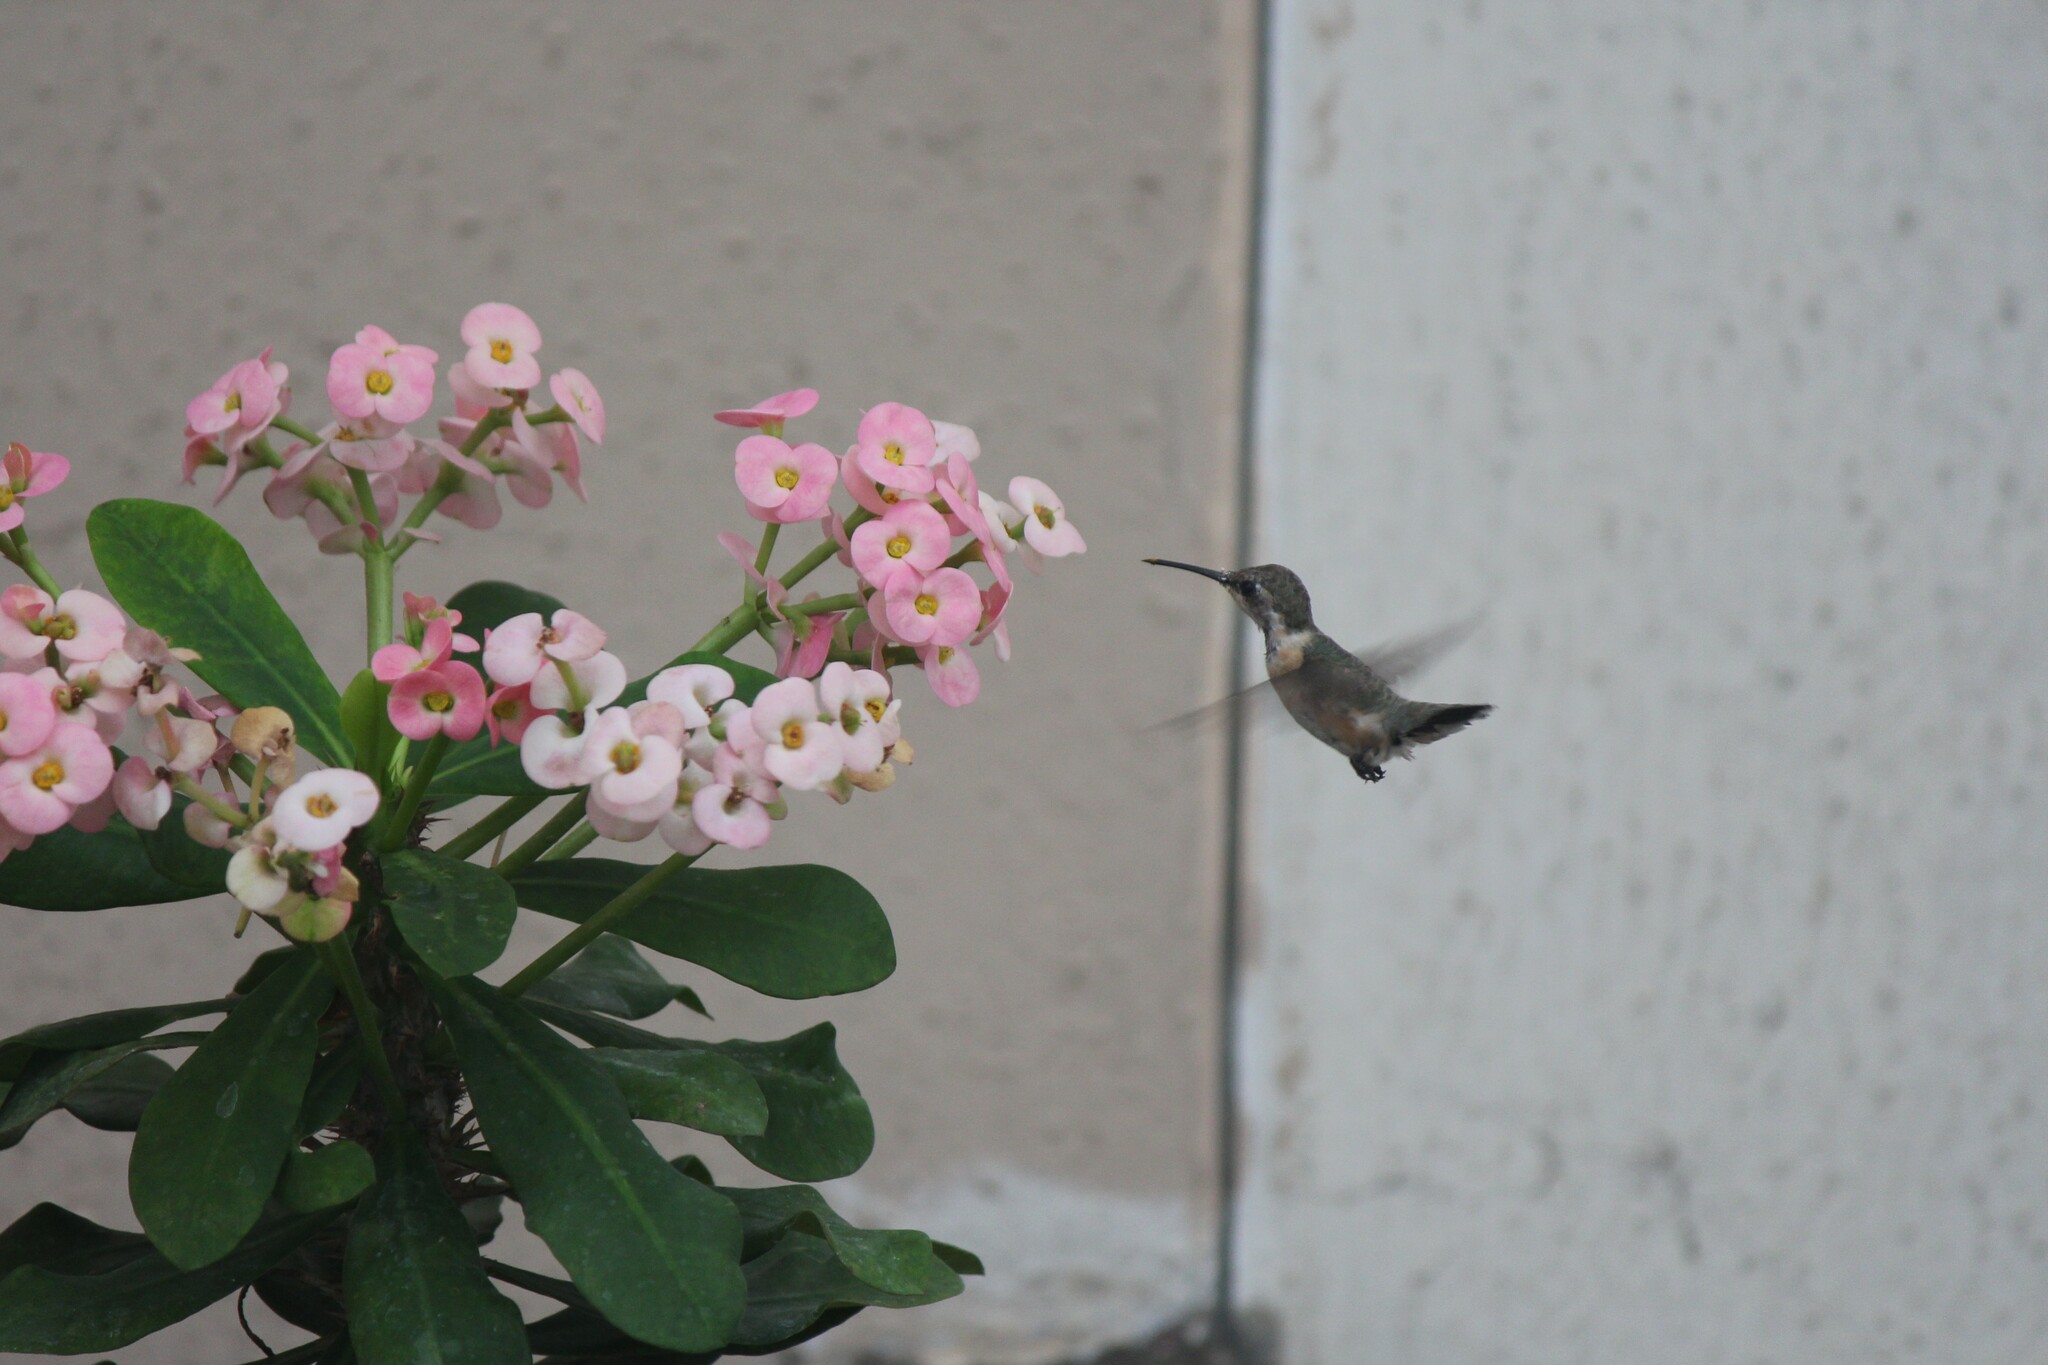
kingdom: Animalia
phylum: Chordata
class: Aves
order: Apodiformes
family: Trochilidae
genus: Myrmia
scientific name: Myrmia micrura
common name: Short-tailed woodstar
